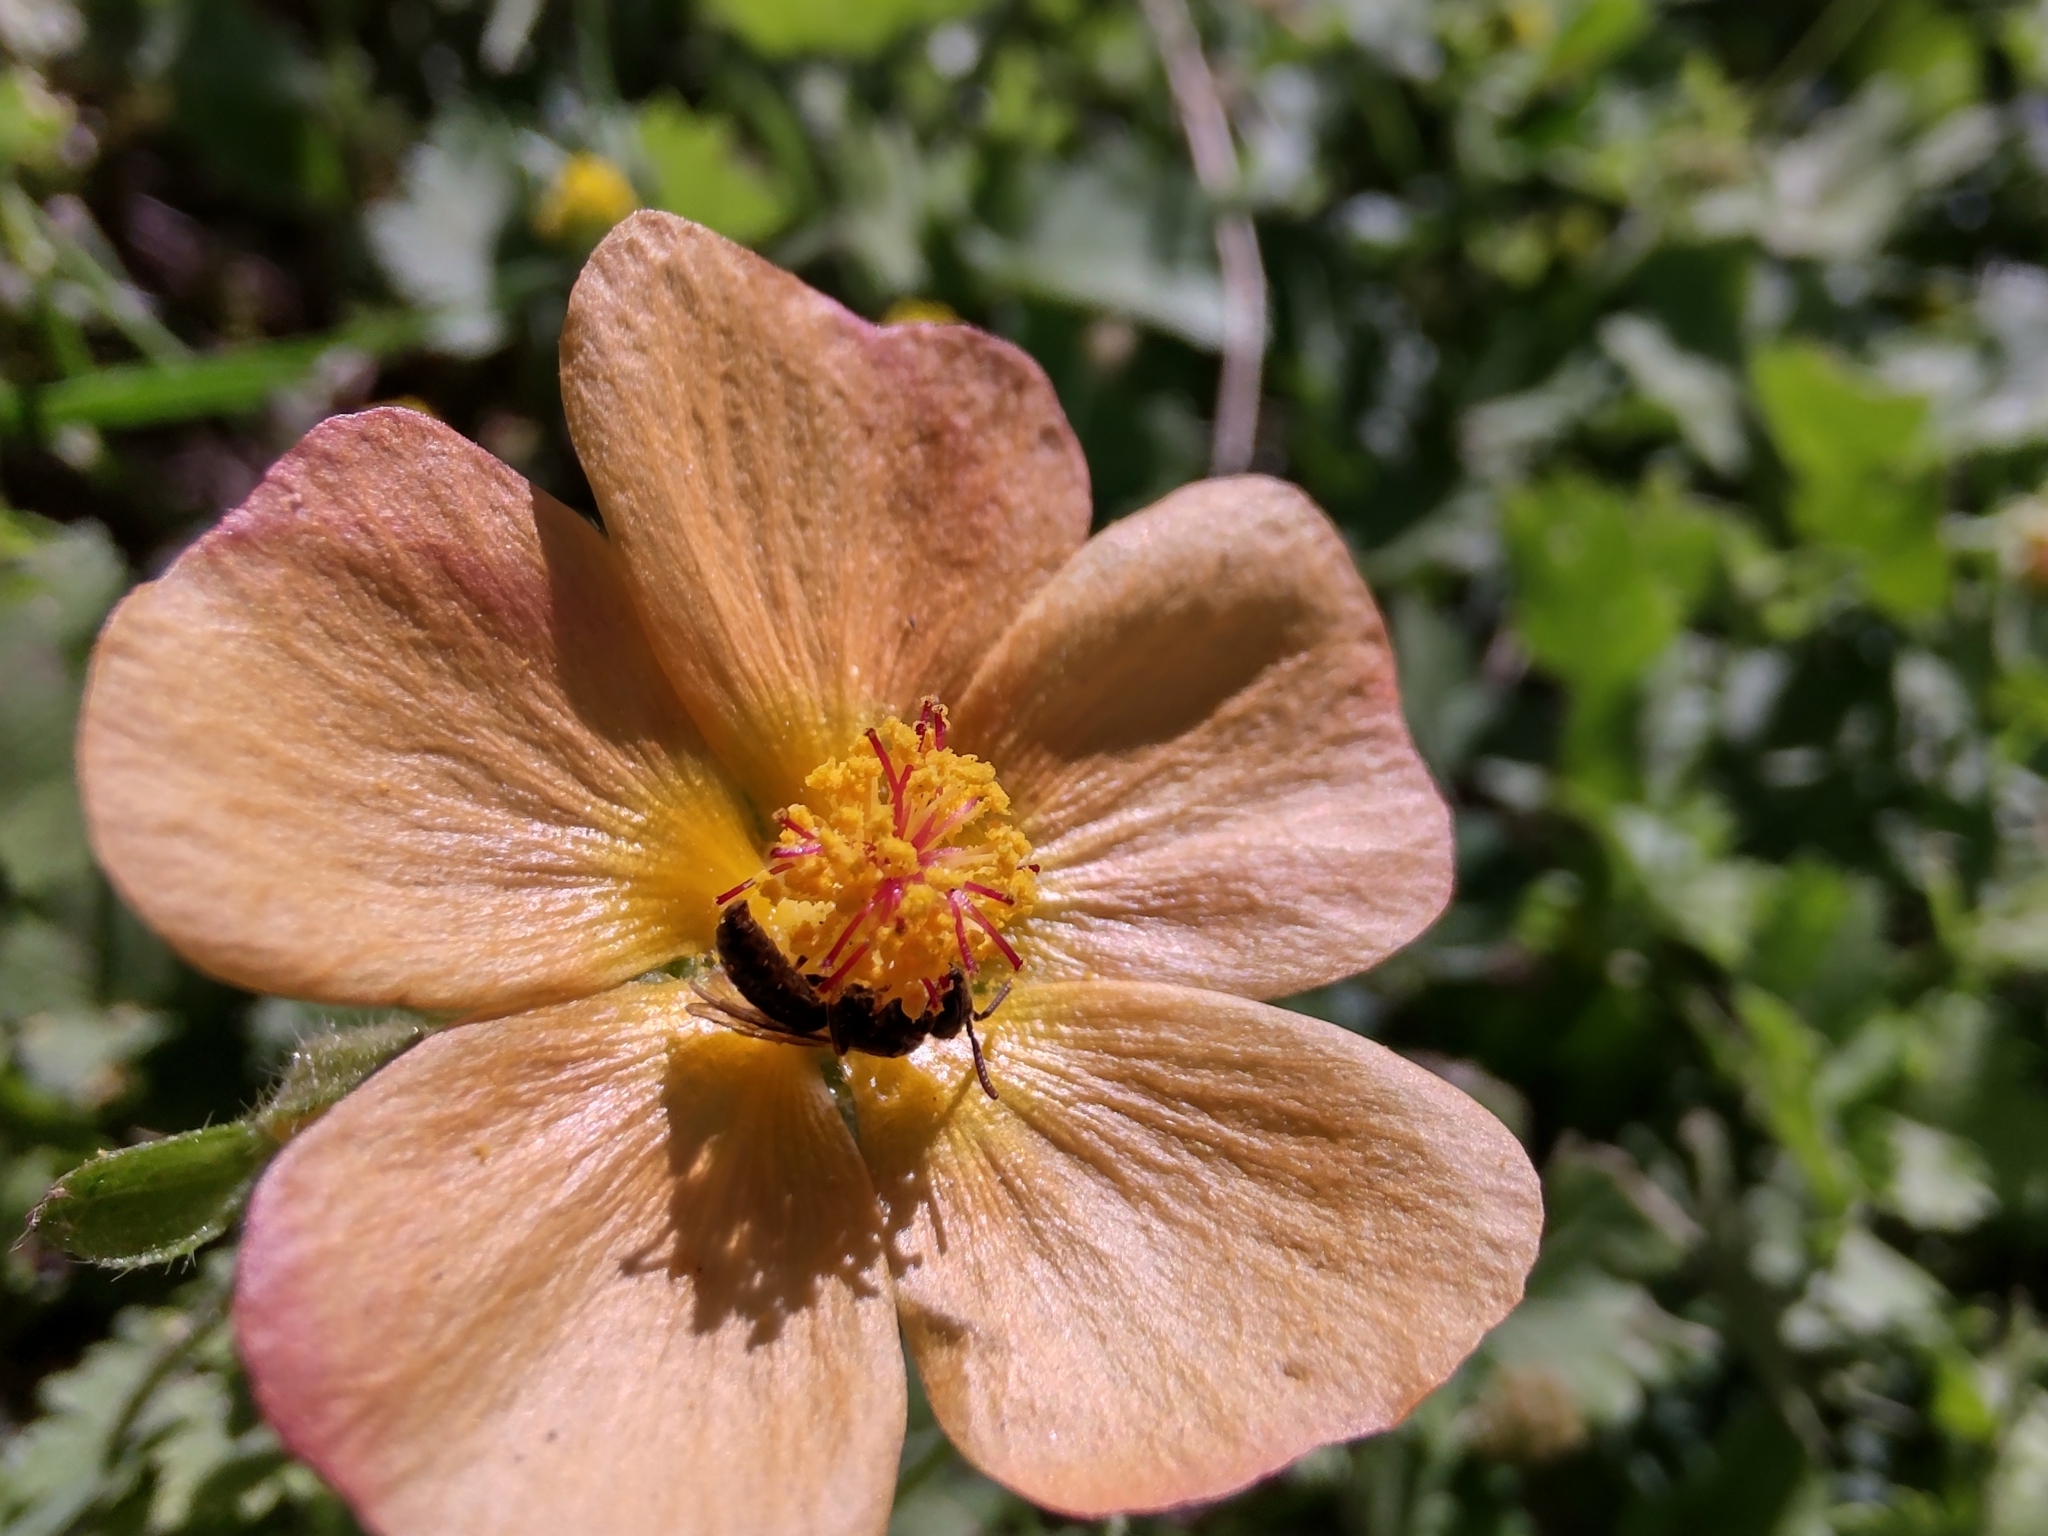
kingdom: Plantae
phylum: Tracheophyta
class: Magnoliopsida
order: Malvales
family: Malvaceae
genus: Modiolastrum
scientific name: Modiolastrum malvifolium
